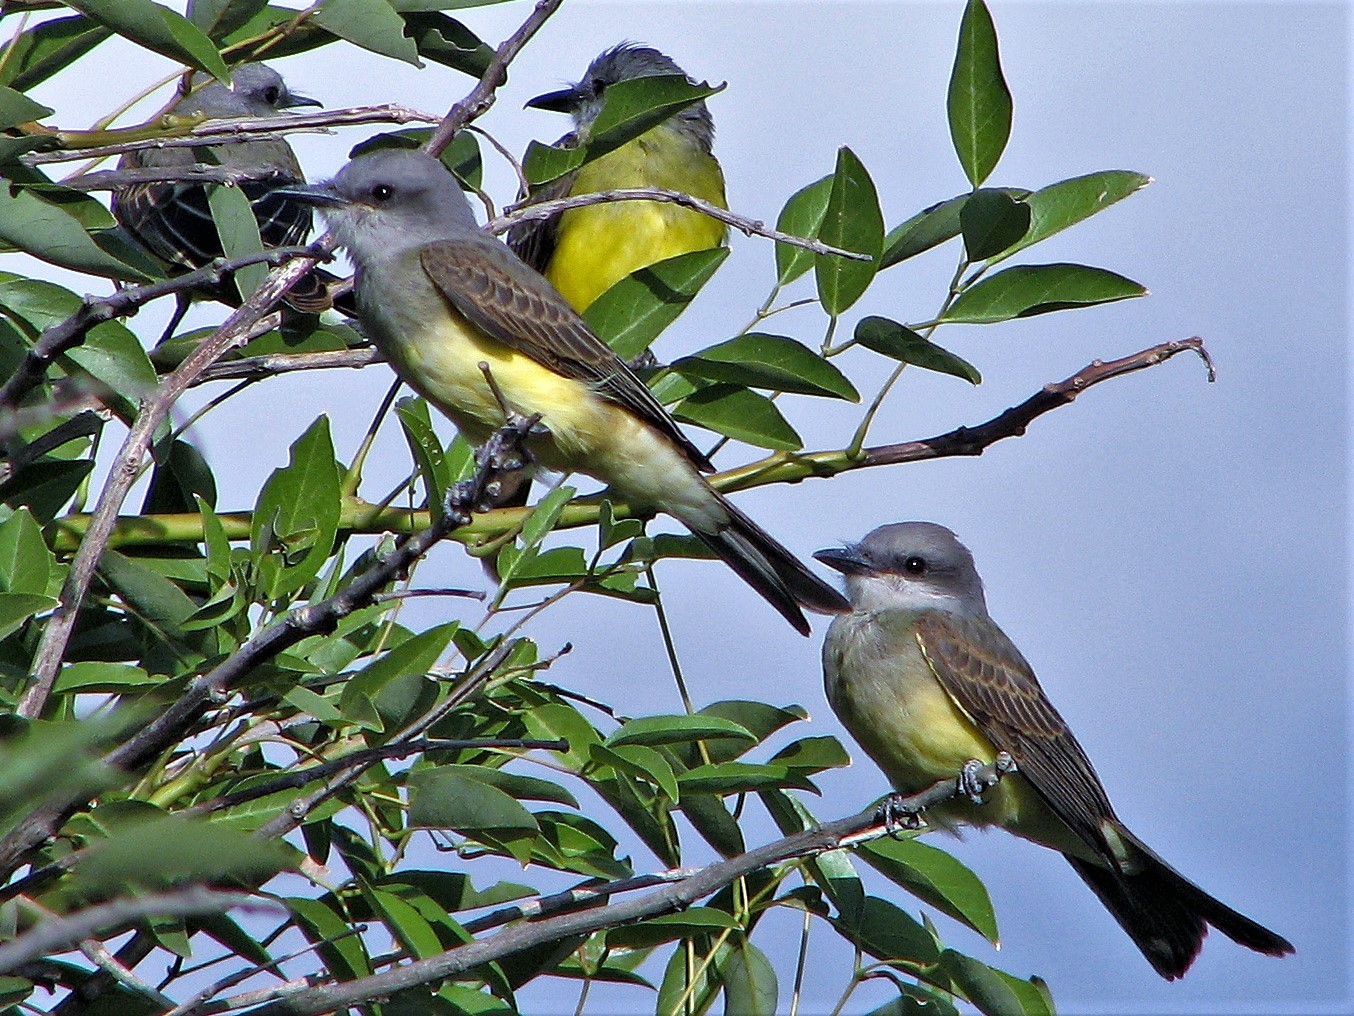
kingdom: Animalia
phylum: Chordata
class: Aves
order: Passeriformes
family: Tyrannidae
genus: Tyrannus
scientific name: Tyrannus melancholicus
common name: Tropical kingbird
